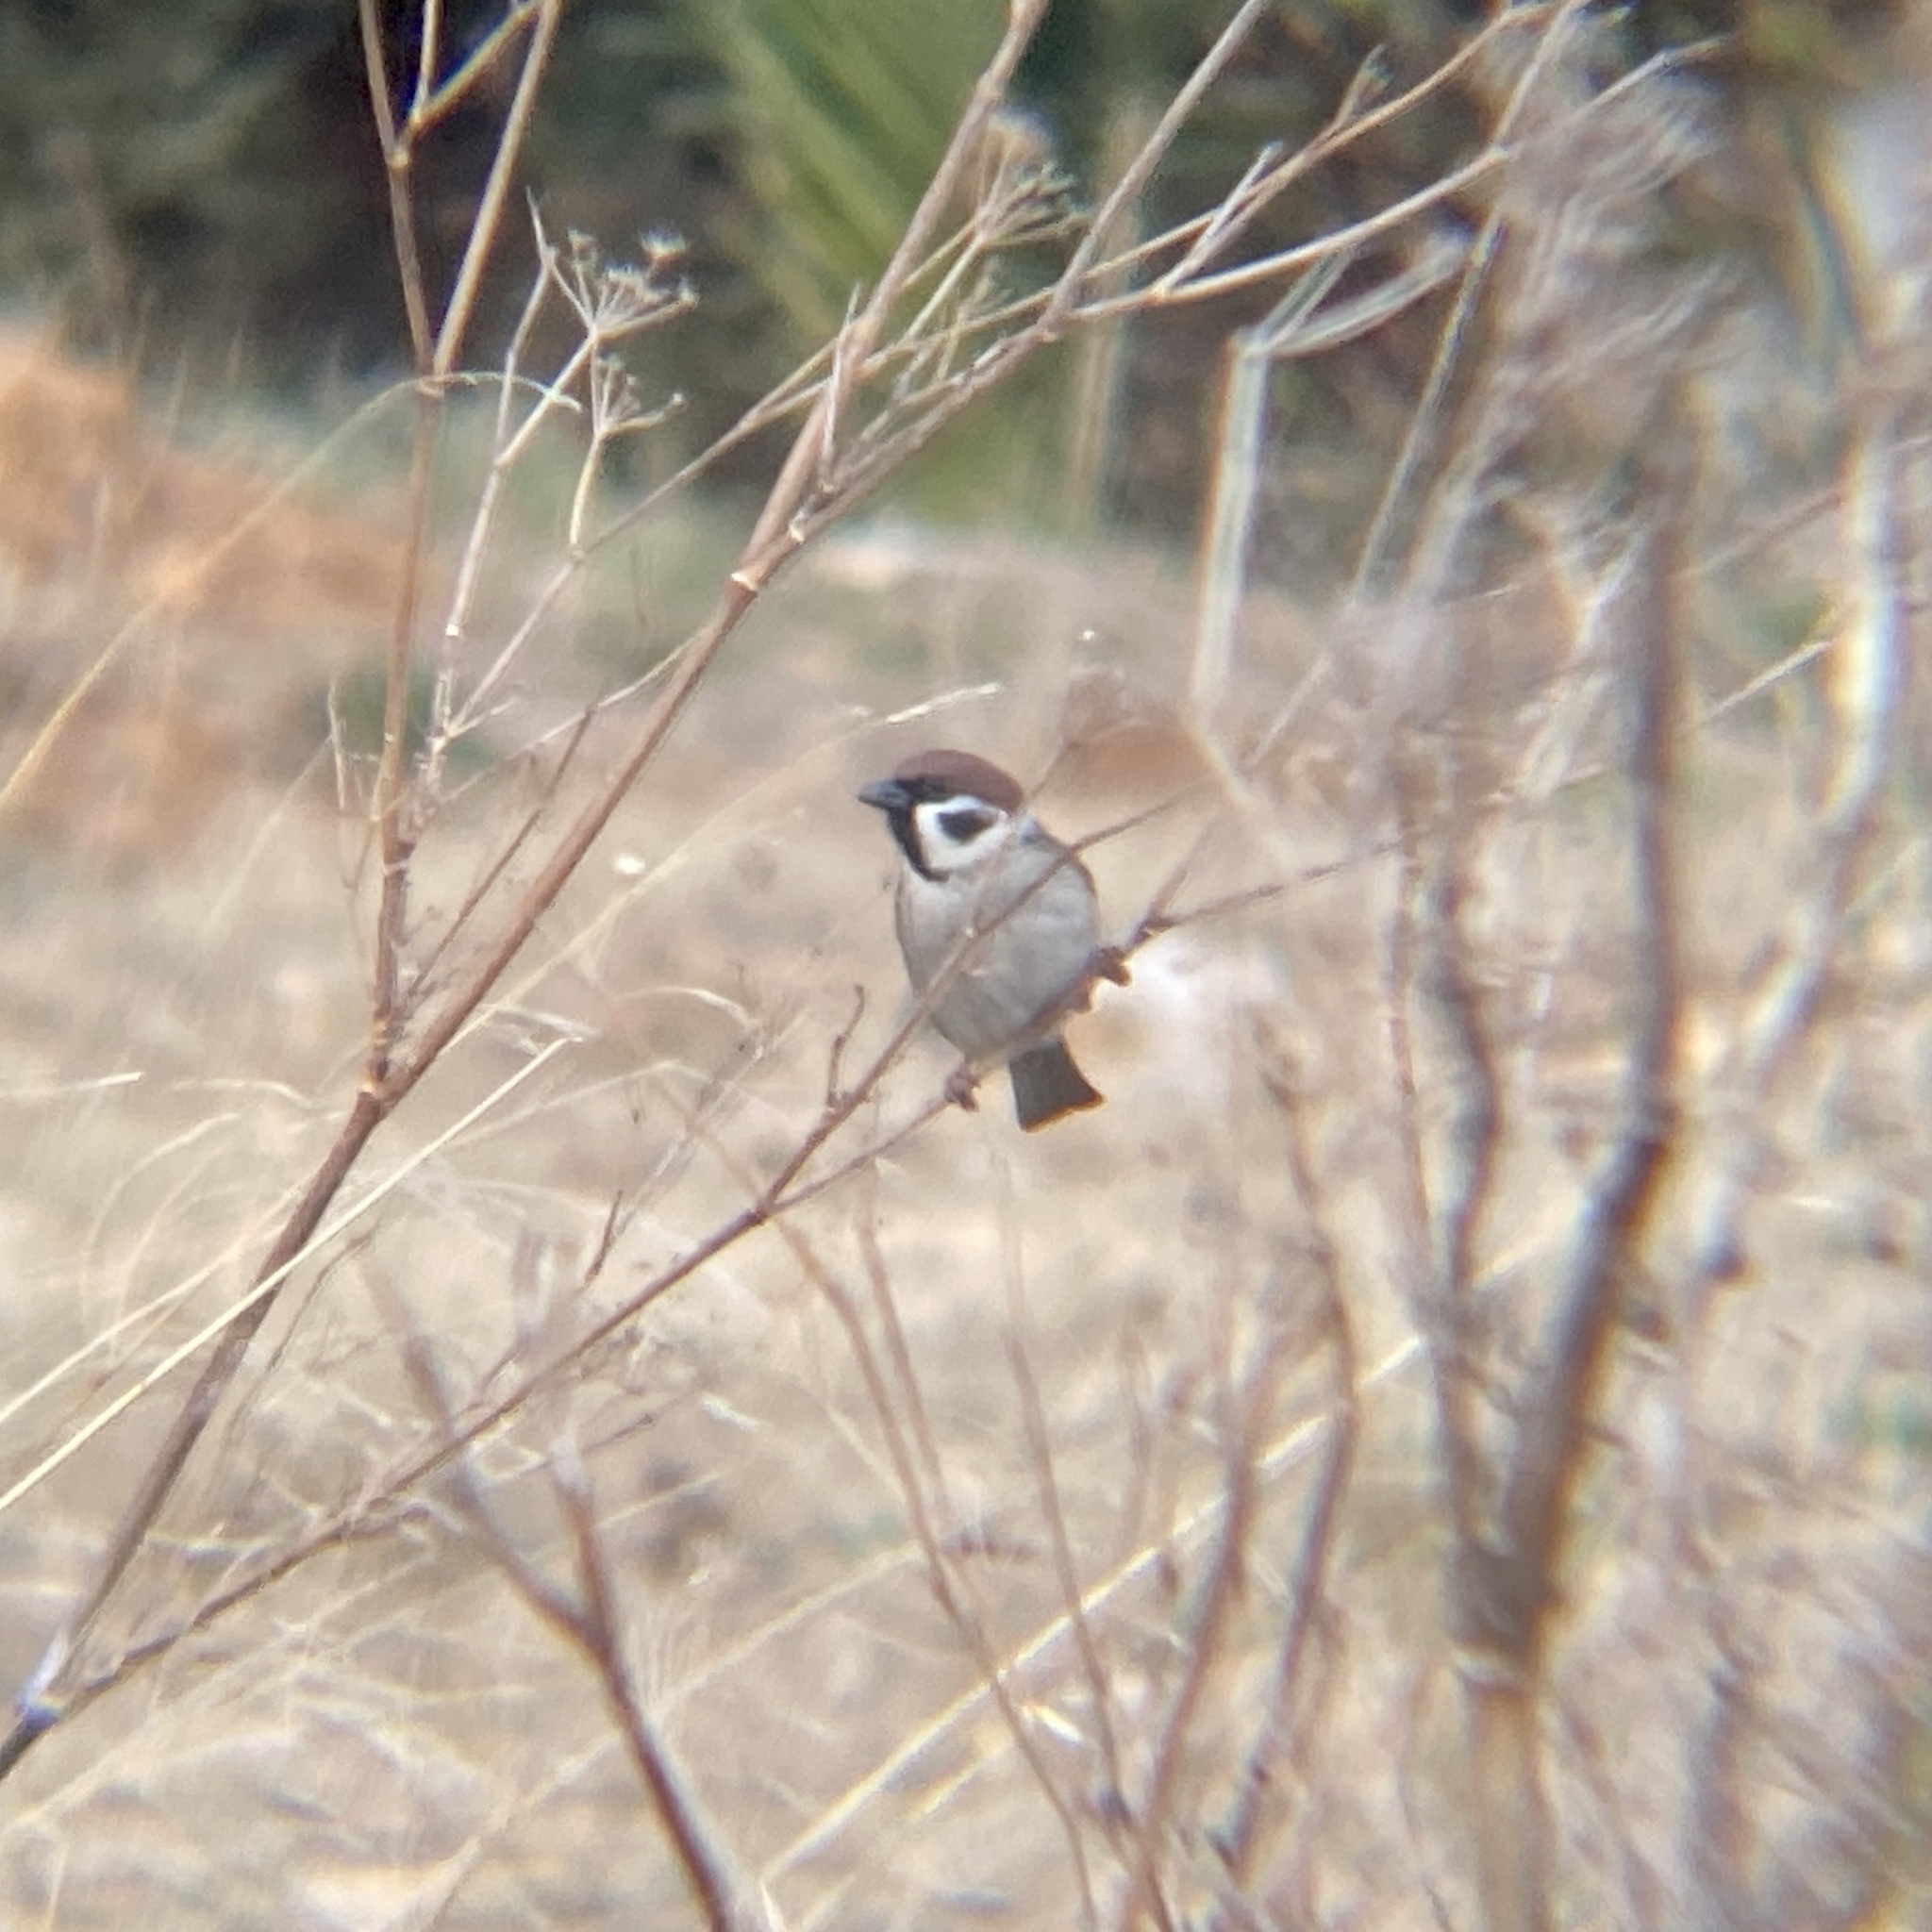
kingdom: Animalia
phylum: Chordata
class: Aves
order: Passeriformes
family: Passeridae
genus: Passer
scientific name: Passer montanus
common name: Eurasian tree sparrow
